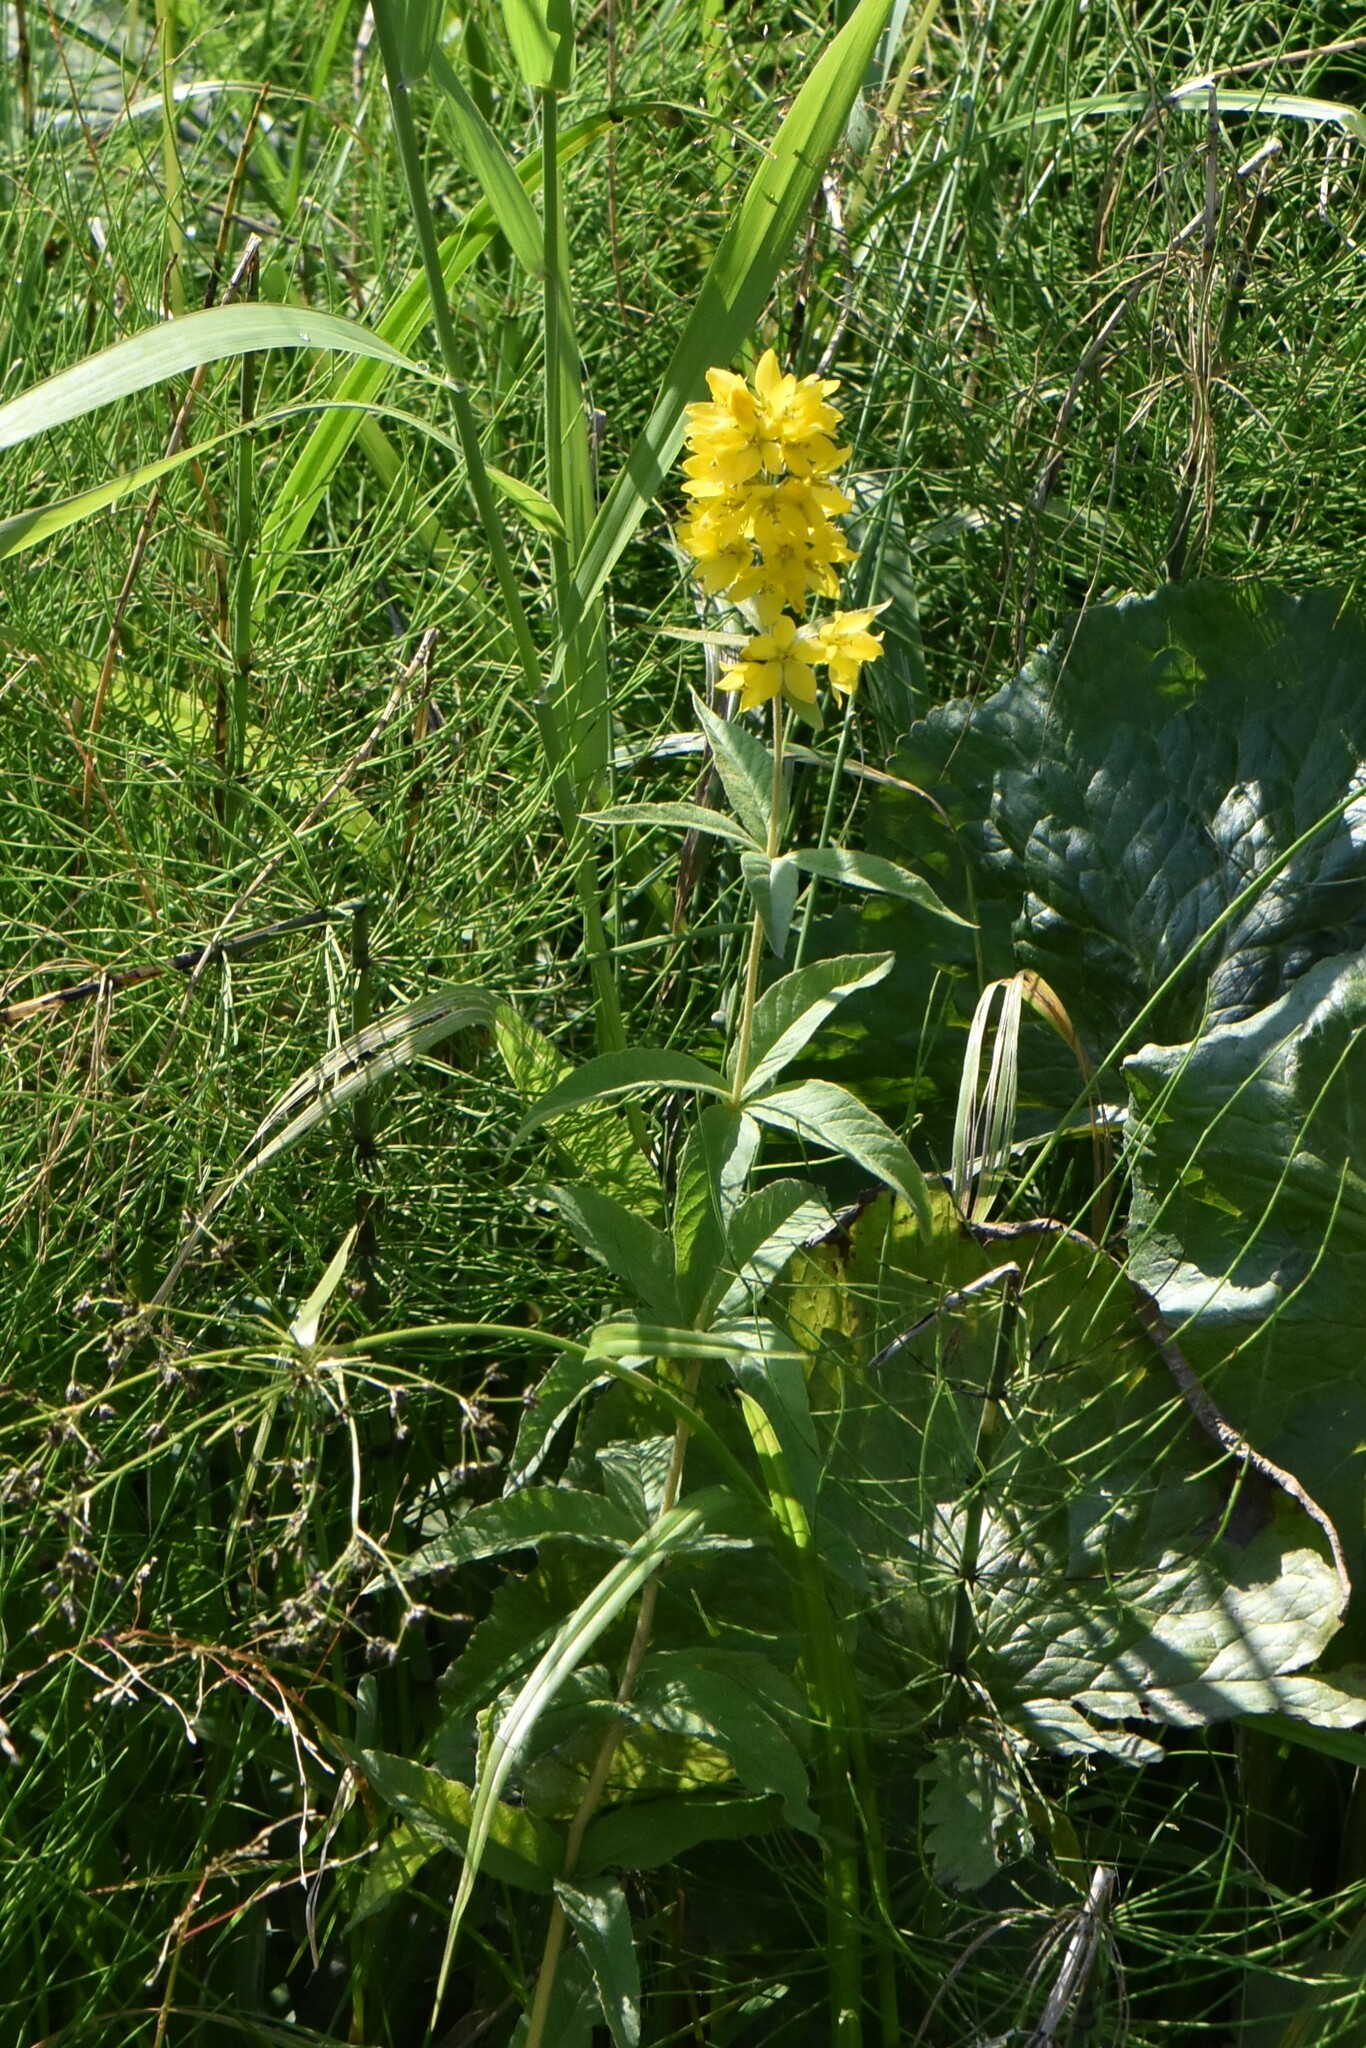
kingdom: Plantae
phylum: Tracheophyta
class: Magnoliopsida
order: Ericales
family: Primulaceae
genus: Lysimachia
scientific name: Lysimachia vulgaris
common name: Yellow loosestrife
